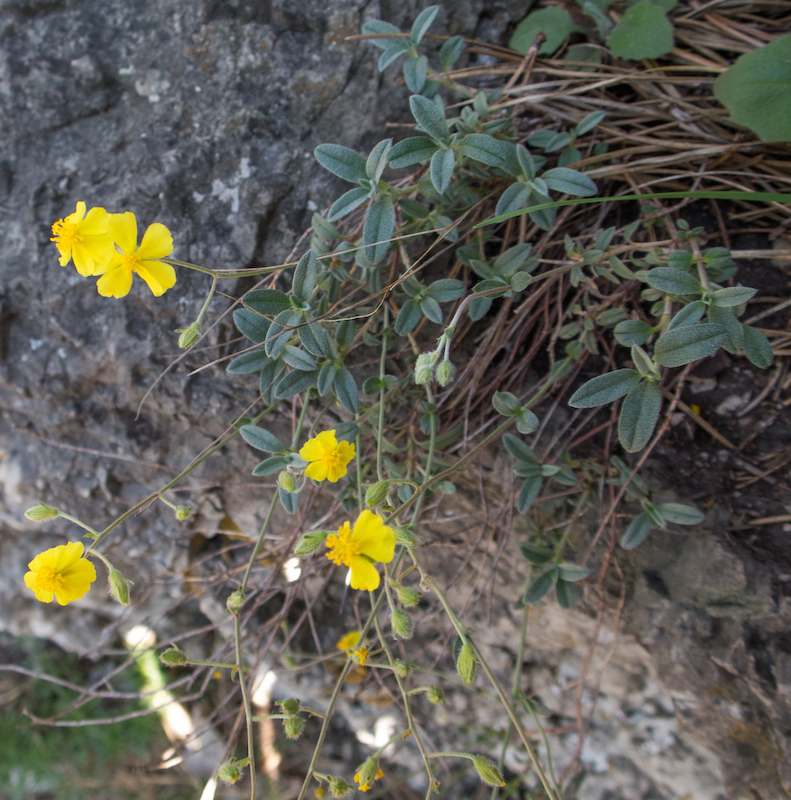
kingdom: Plantae
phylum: Tracheophyta
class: Magnoliopsida
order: Malvales
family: Cistaceae
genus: Helianthemum
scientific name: Helianthemum canum
